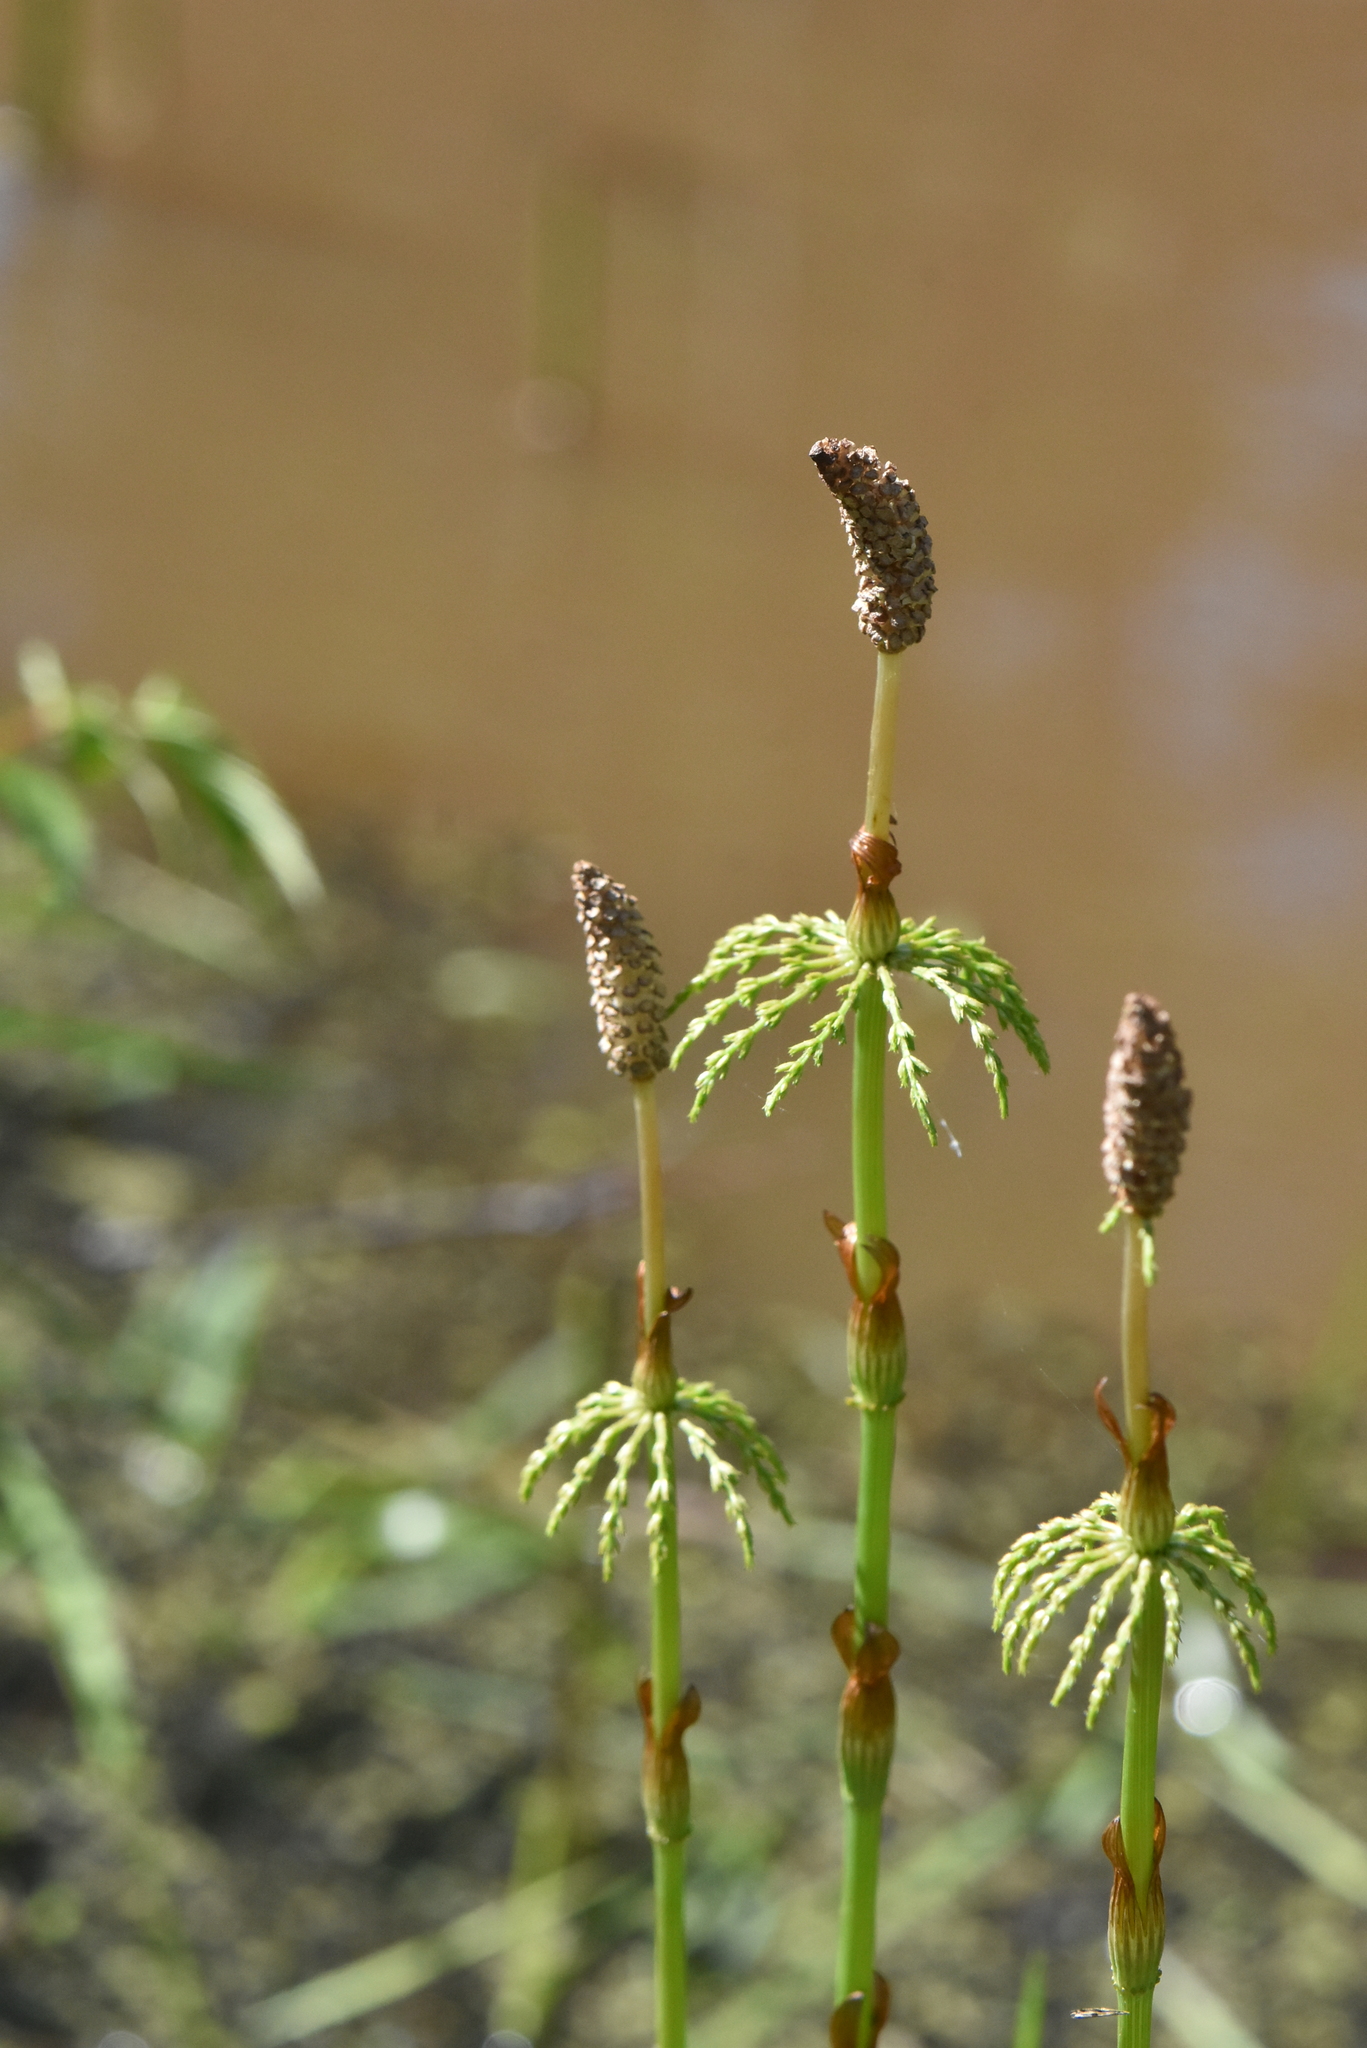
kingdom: Plantae
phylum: Tracheophyta
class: Polypodiopsida
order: Equisetales
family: Equisetaceae
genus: Equisetum
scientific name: Equisetum sylvaticum
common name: Wood horsetail
